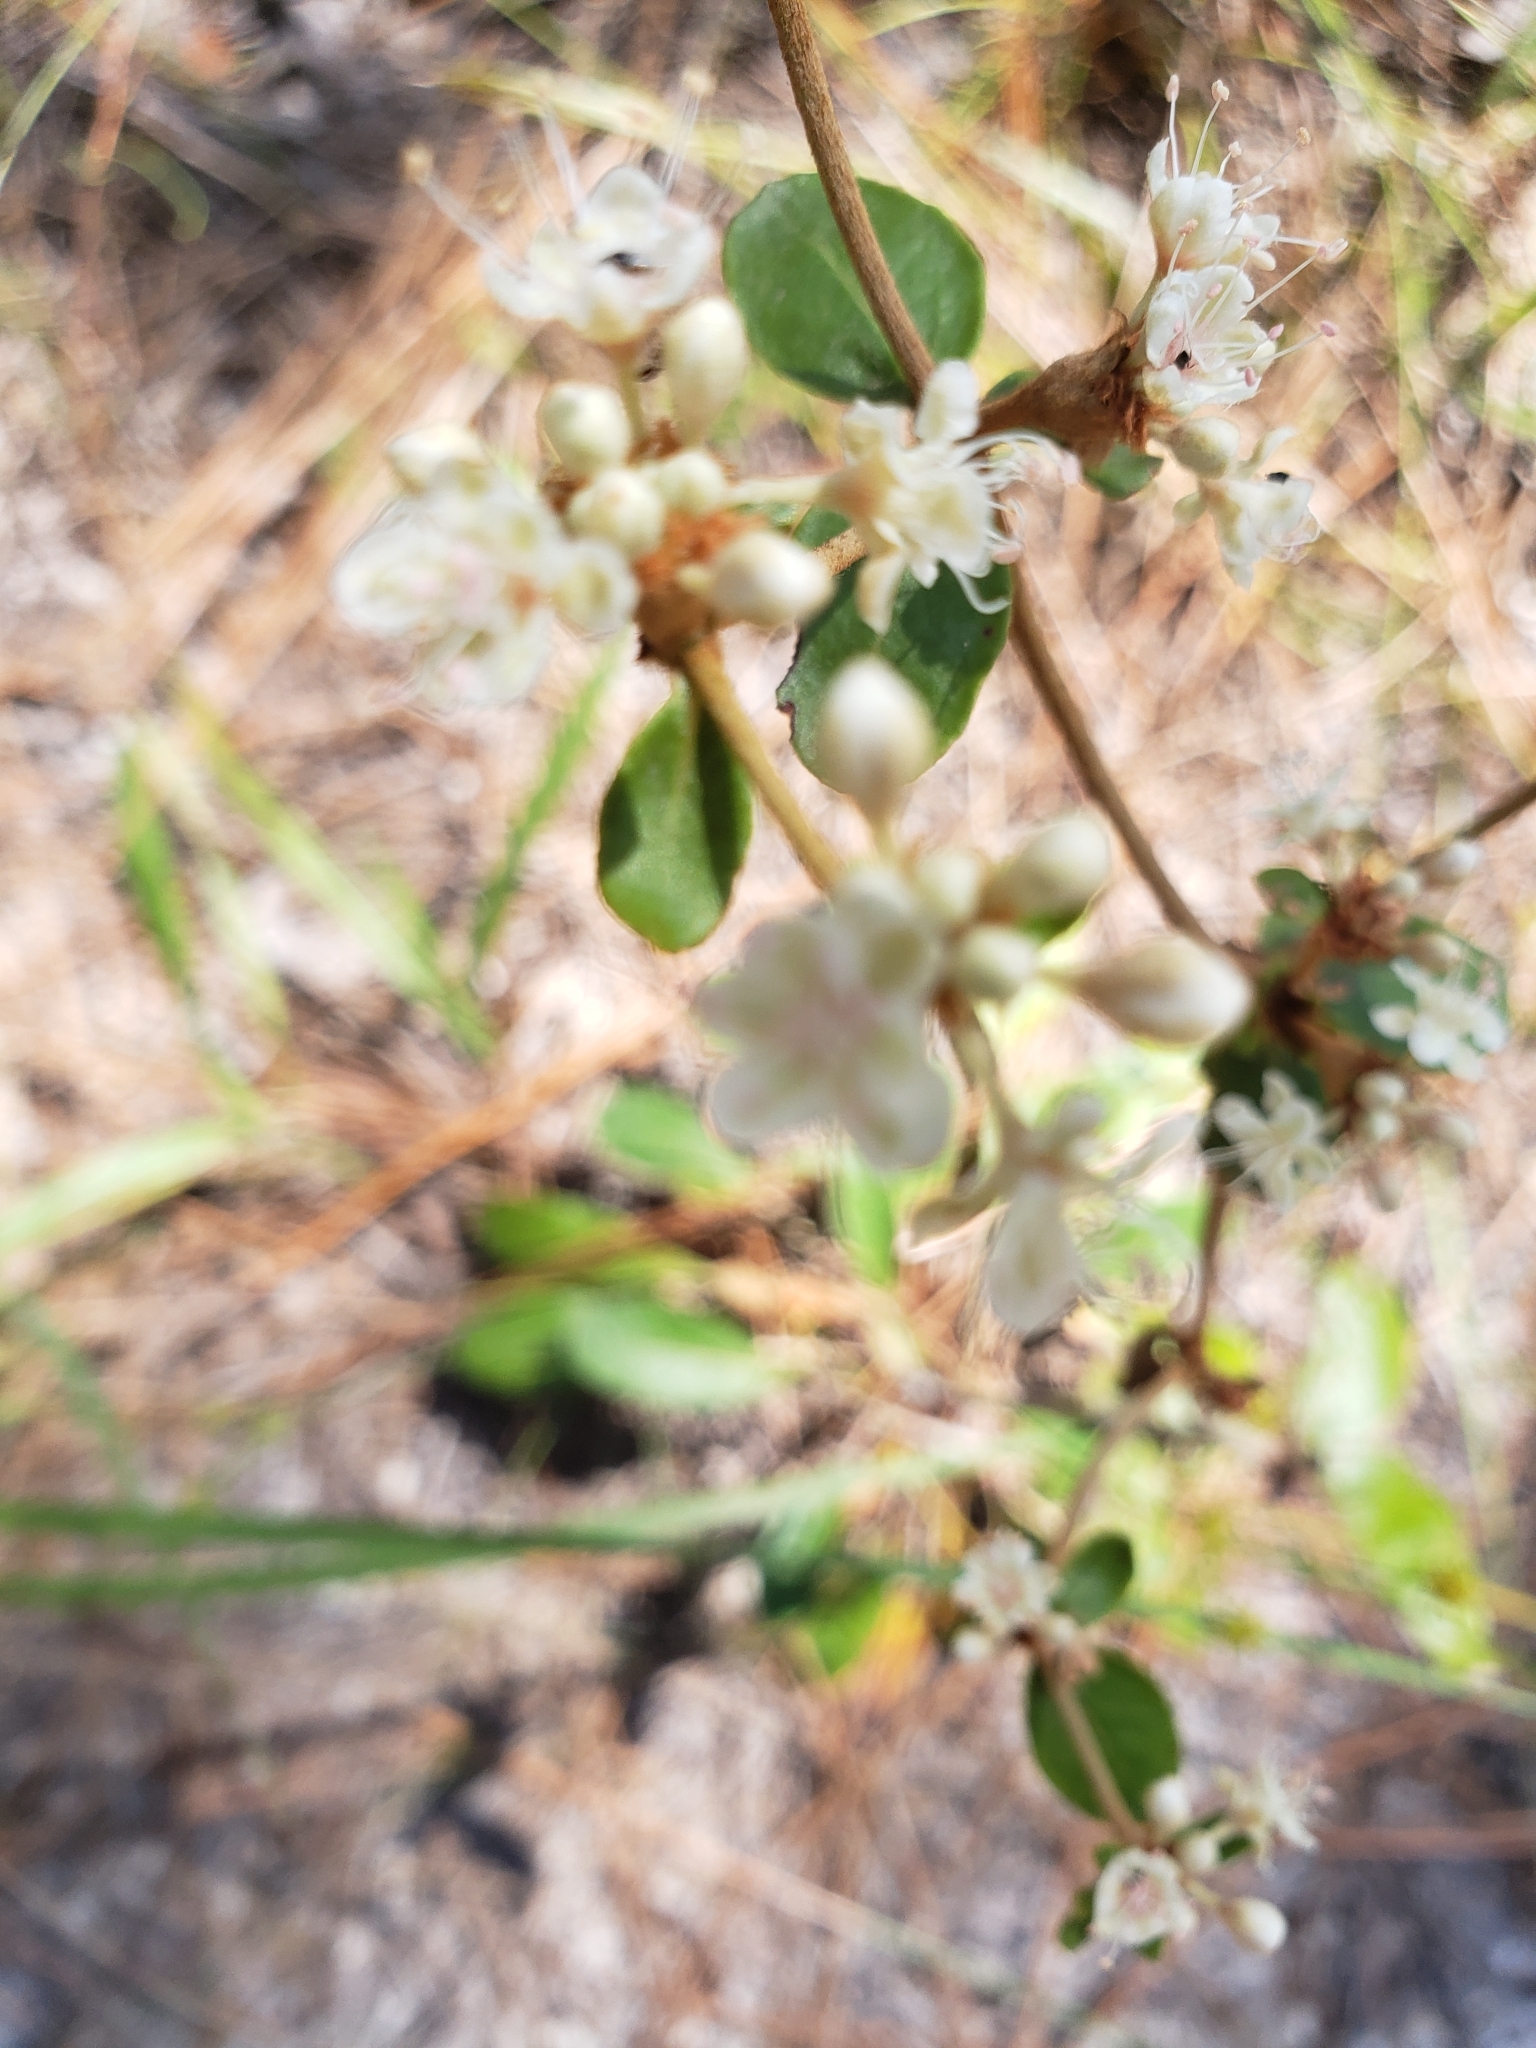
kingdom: Plantae
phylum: Tracheophyta
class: Magnoliopsida
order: Caryophyllales
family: Polygonaceae
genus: Eriogonum
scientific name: Eriogonum tomentosum
